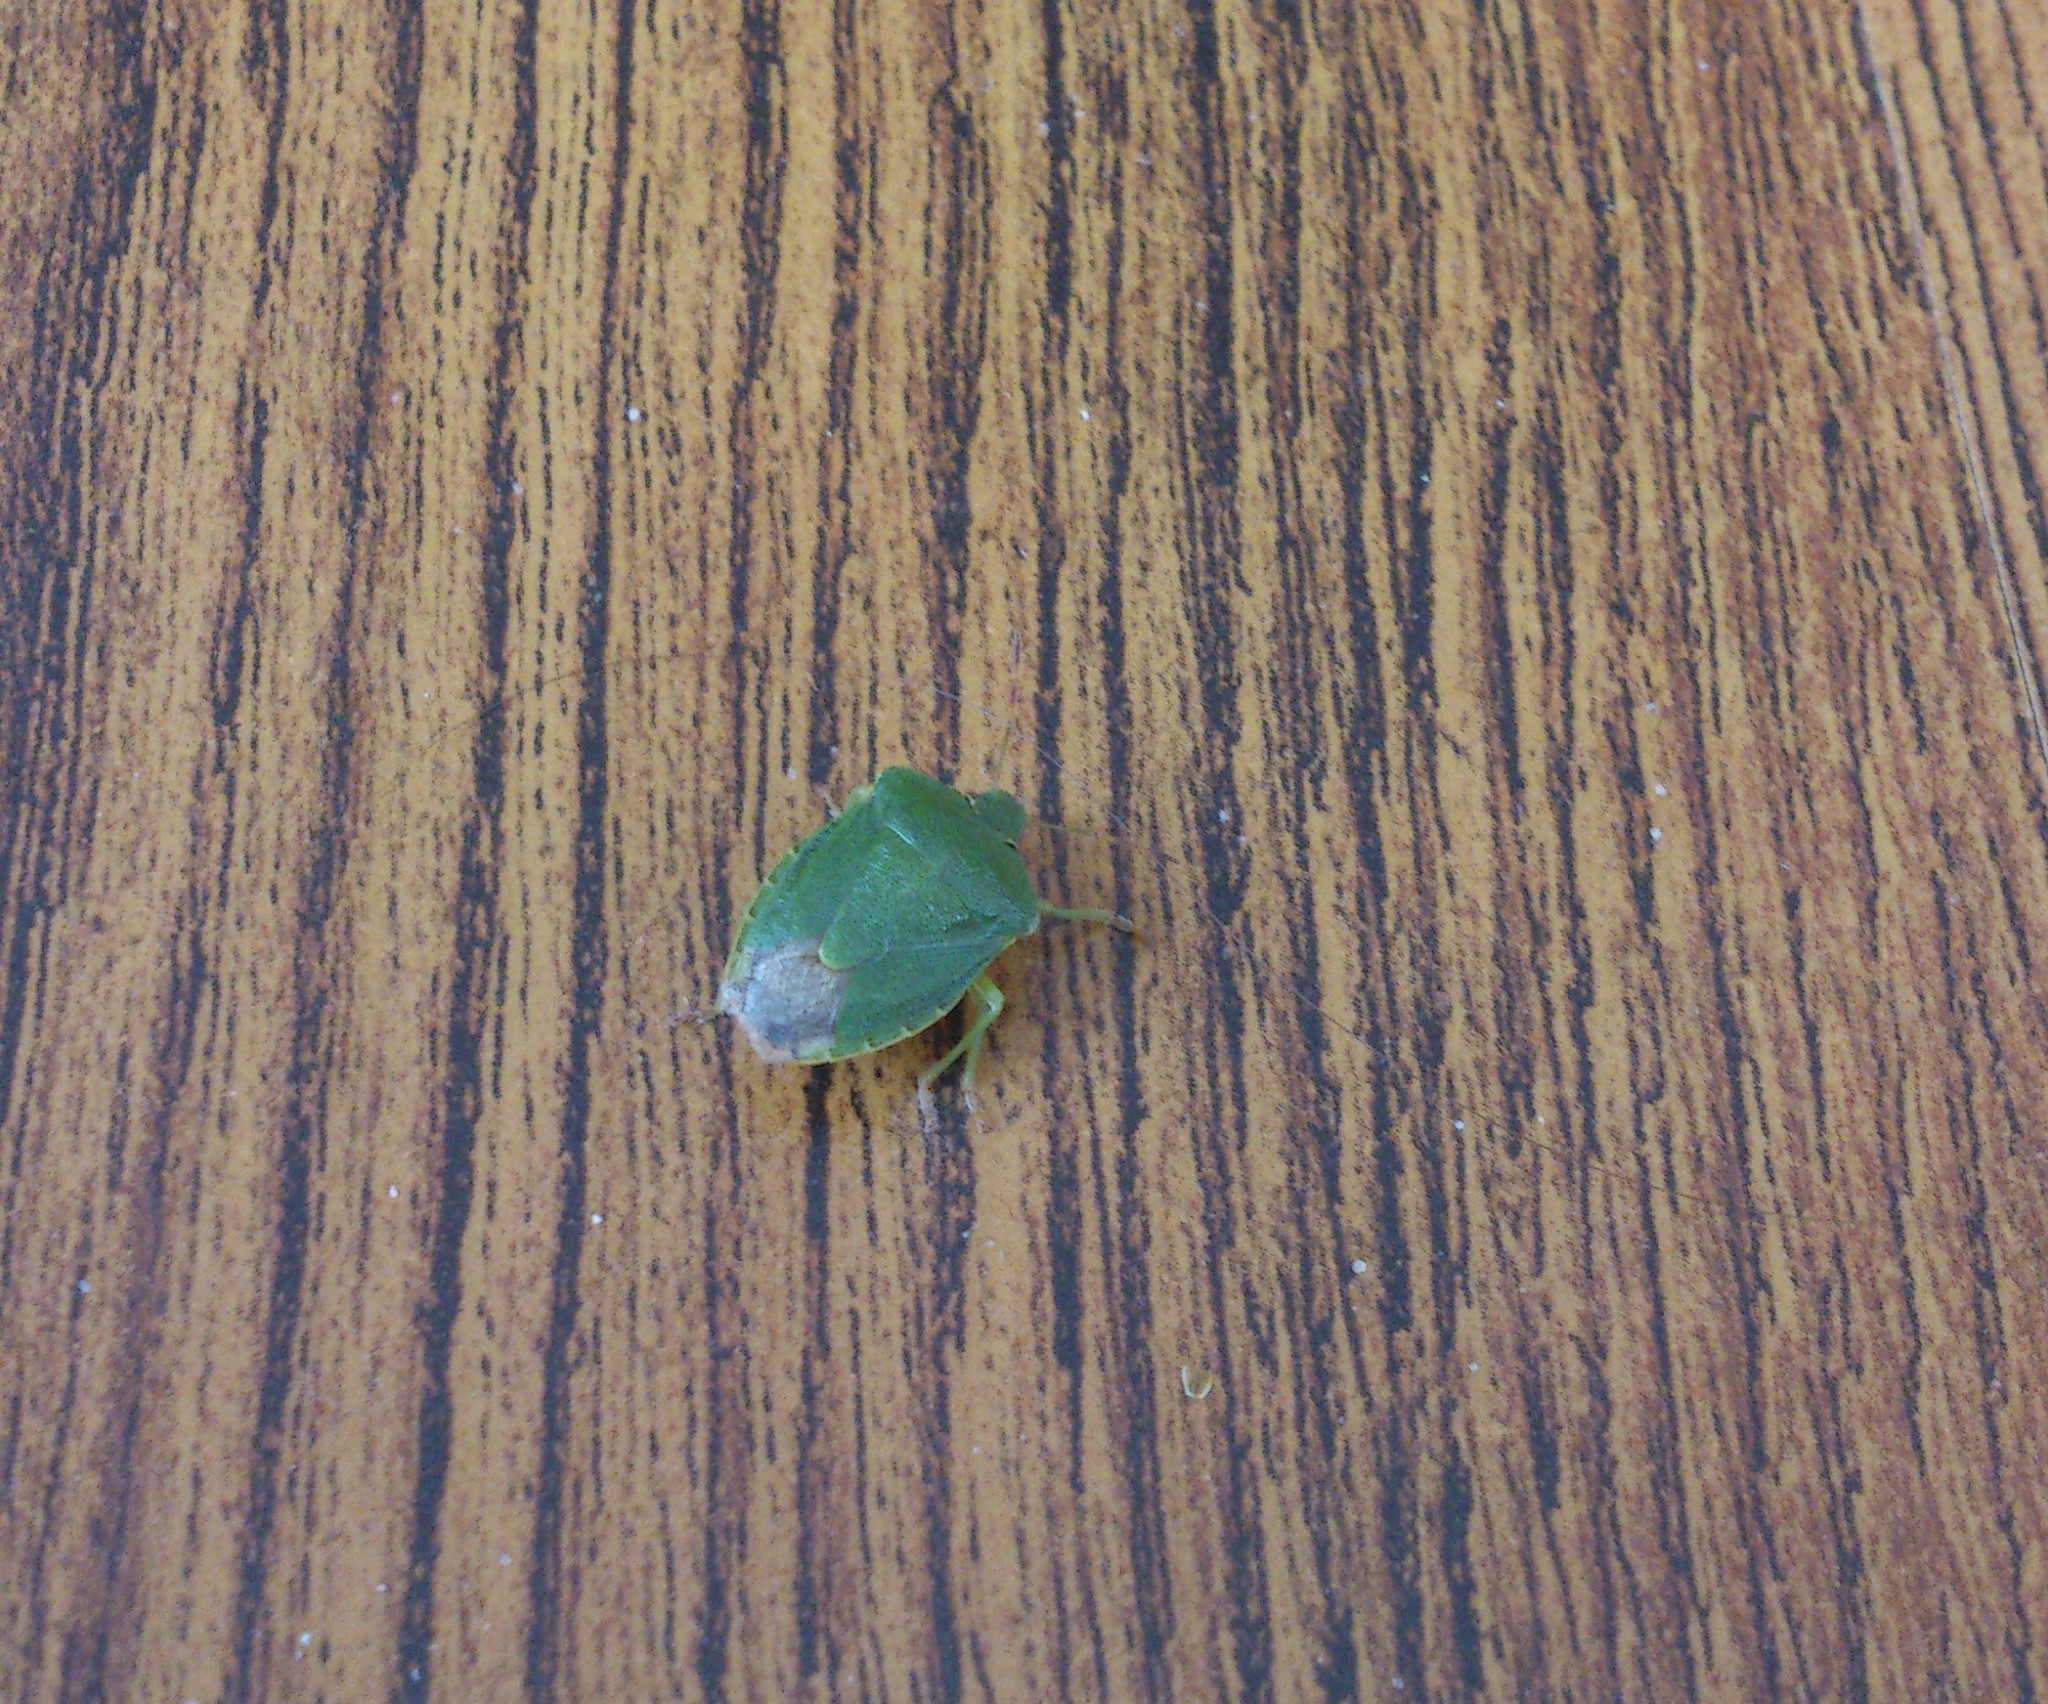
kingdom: Animalia
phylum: Arthropoda
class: Insecta
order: Hemiptera
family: Pentatomidae
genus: Palomena
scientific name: Palomena prasina
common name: Green shieldbug
